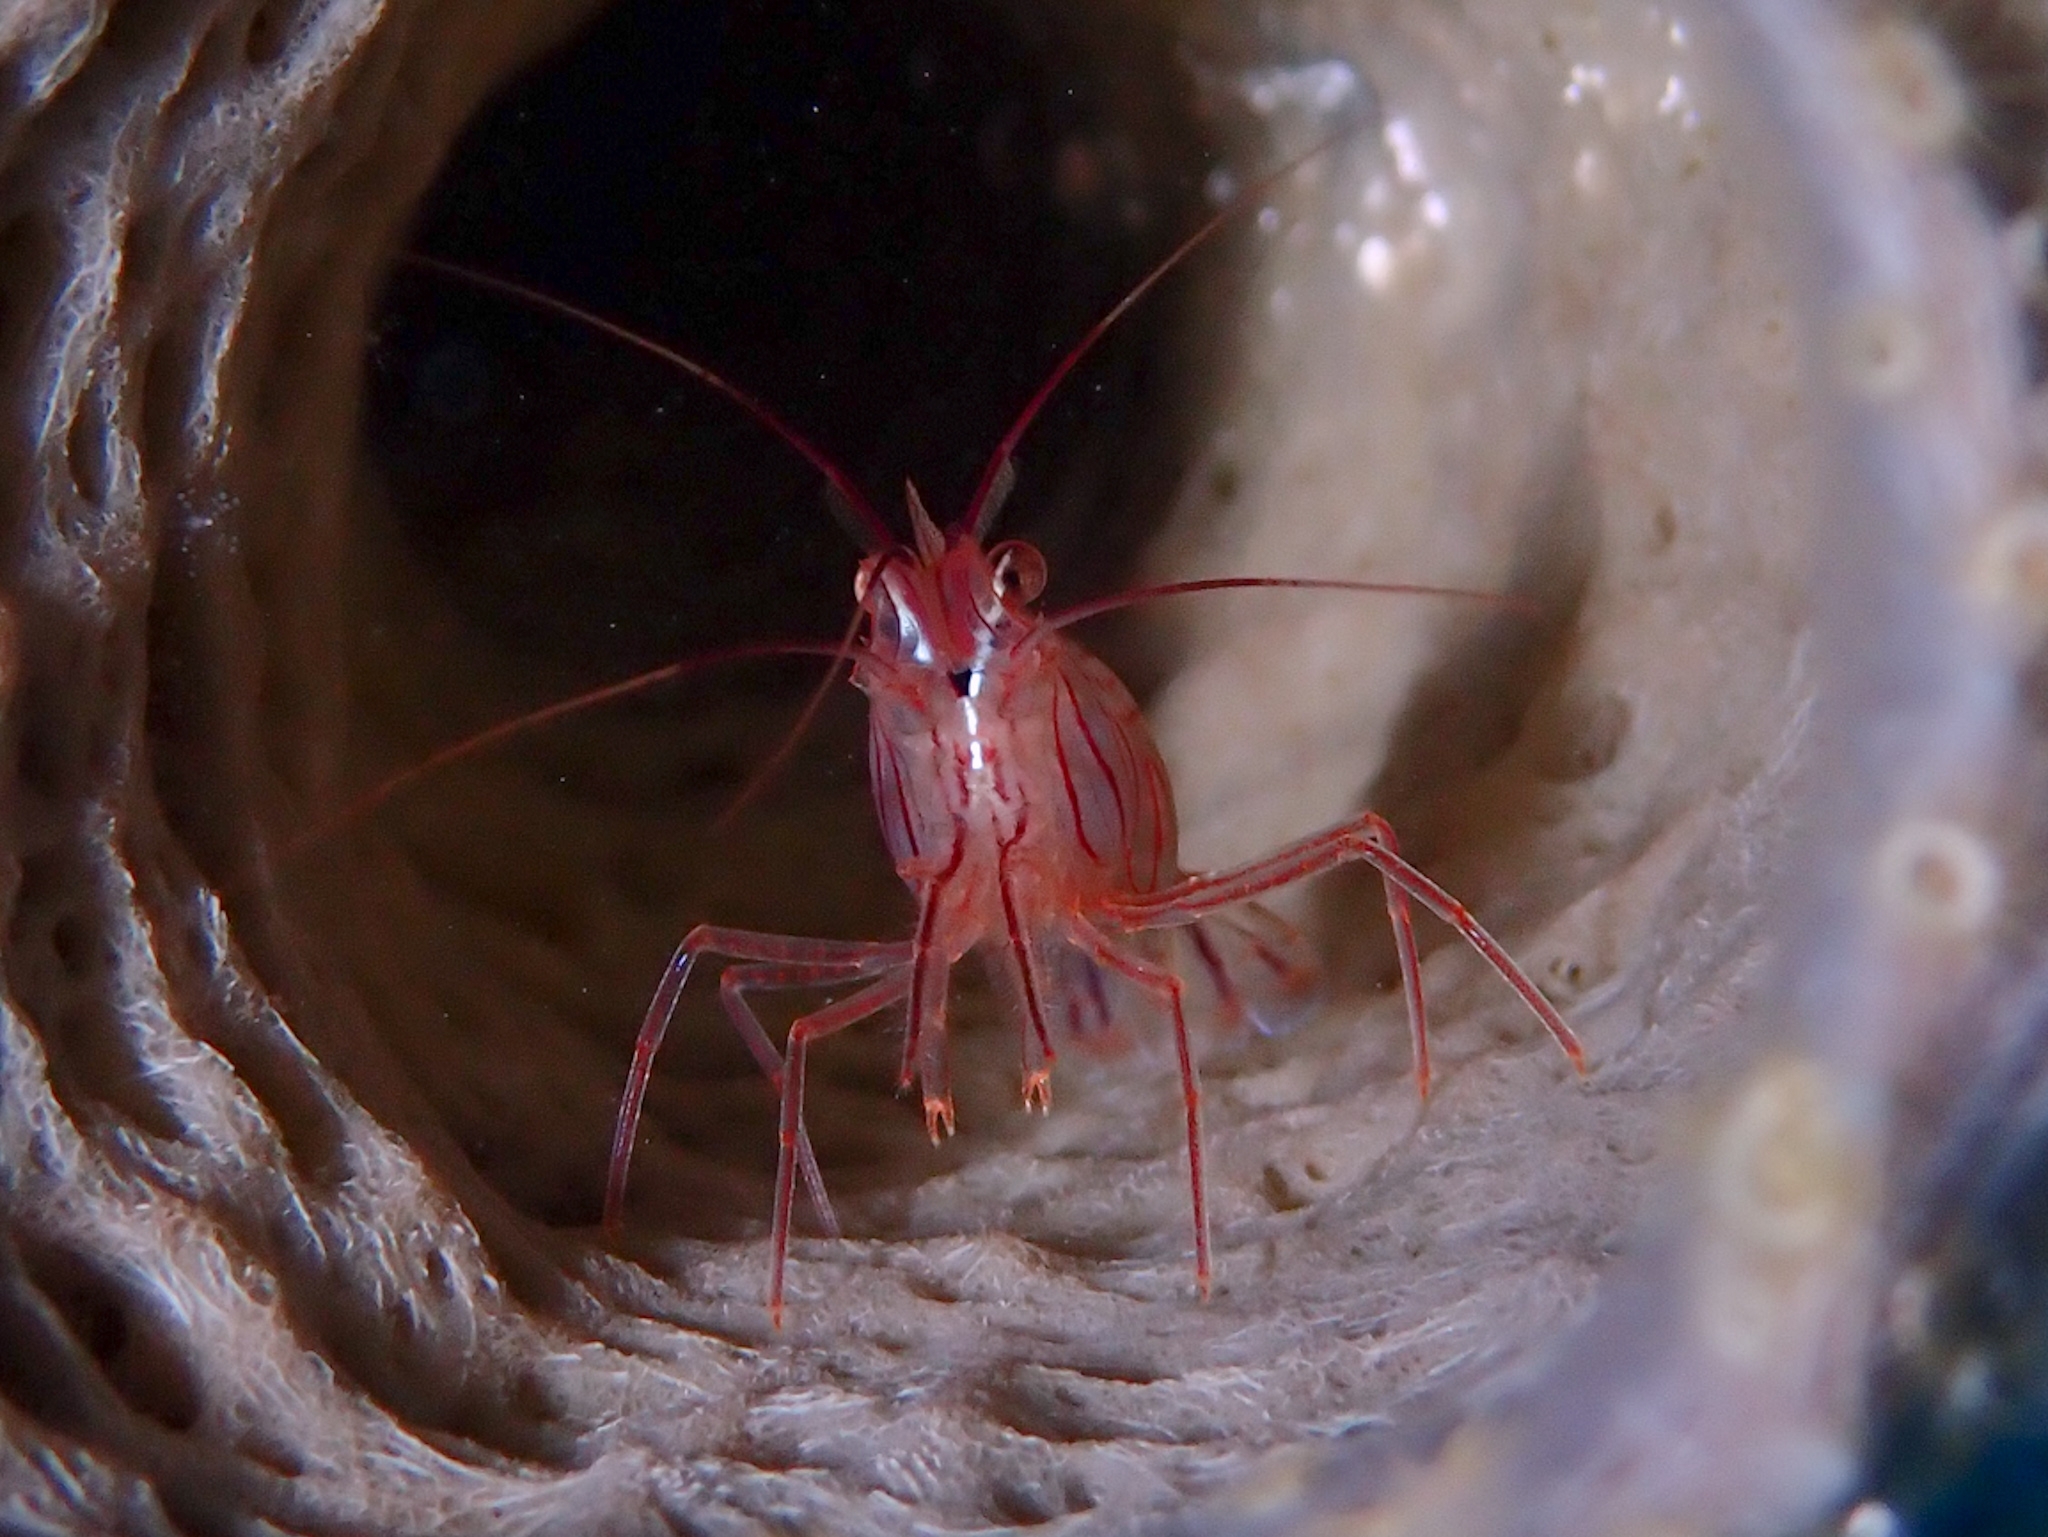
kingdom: Animalia
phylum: Arthropoda
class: Malacostraca
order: Decapoda
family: Lysmatidae
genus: Lysmata
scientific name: Lysmata pederseni
